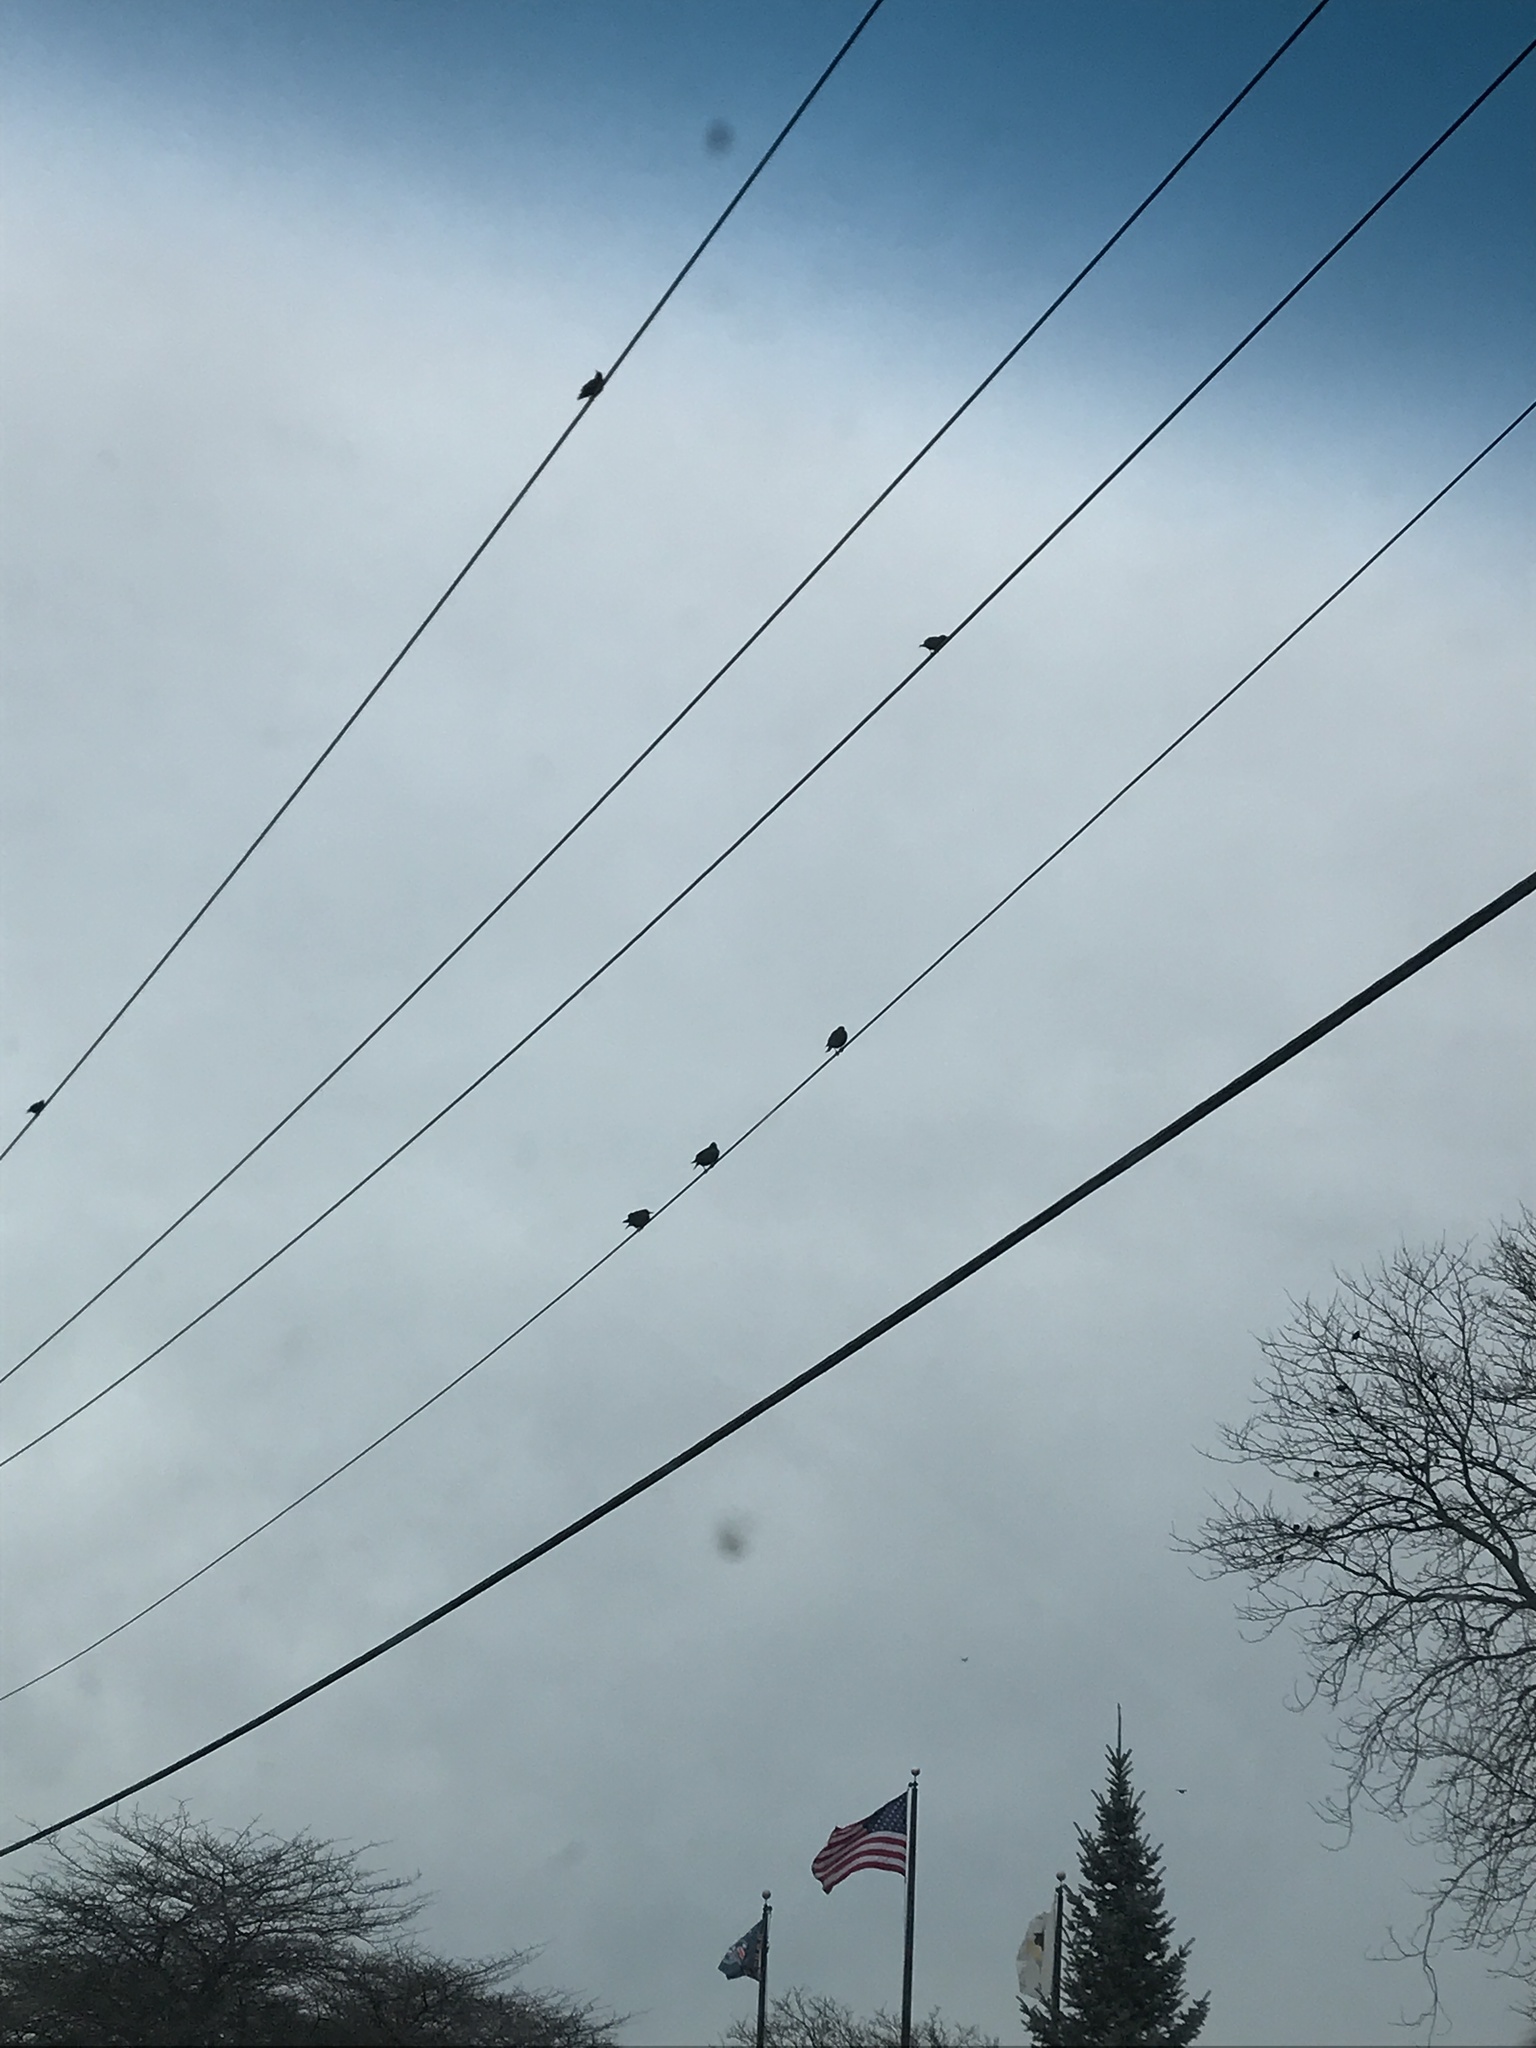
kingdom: Animalia
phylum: Chordata
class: Aves
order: Passeriformes
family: Sturnidae
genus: Sturnus
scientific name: Sturnus vulgaris
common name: Common starling
